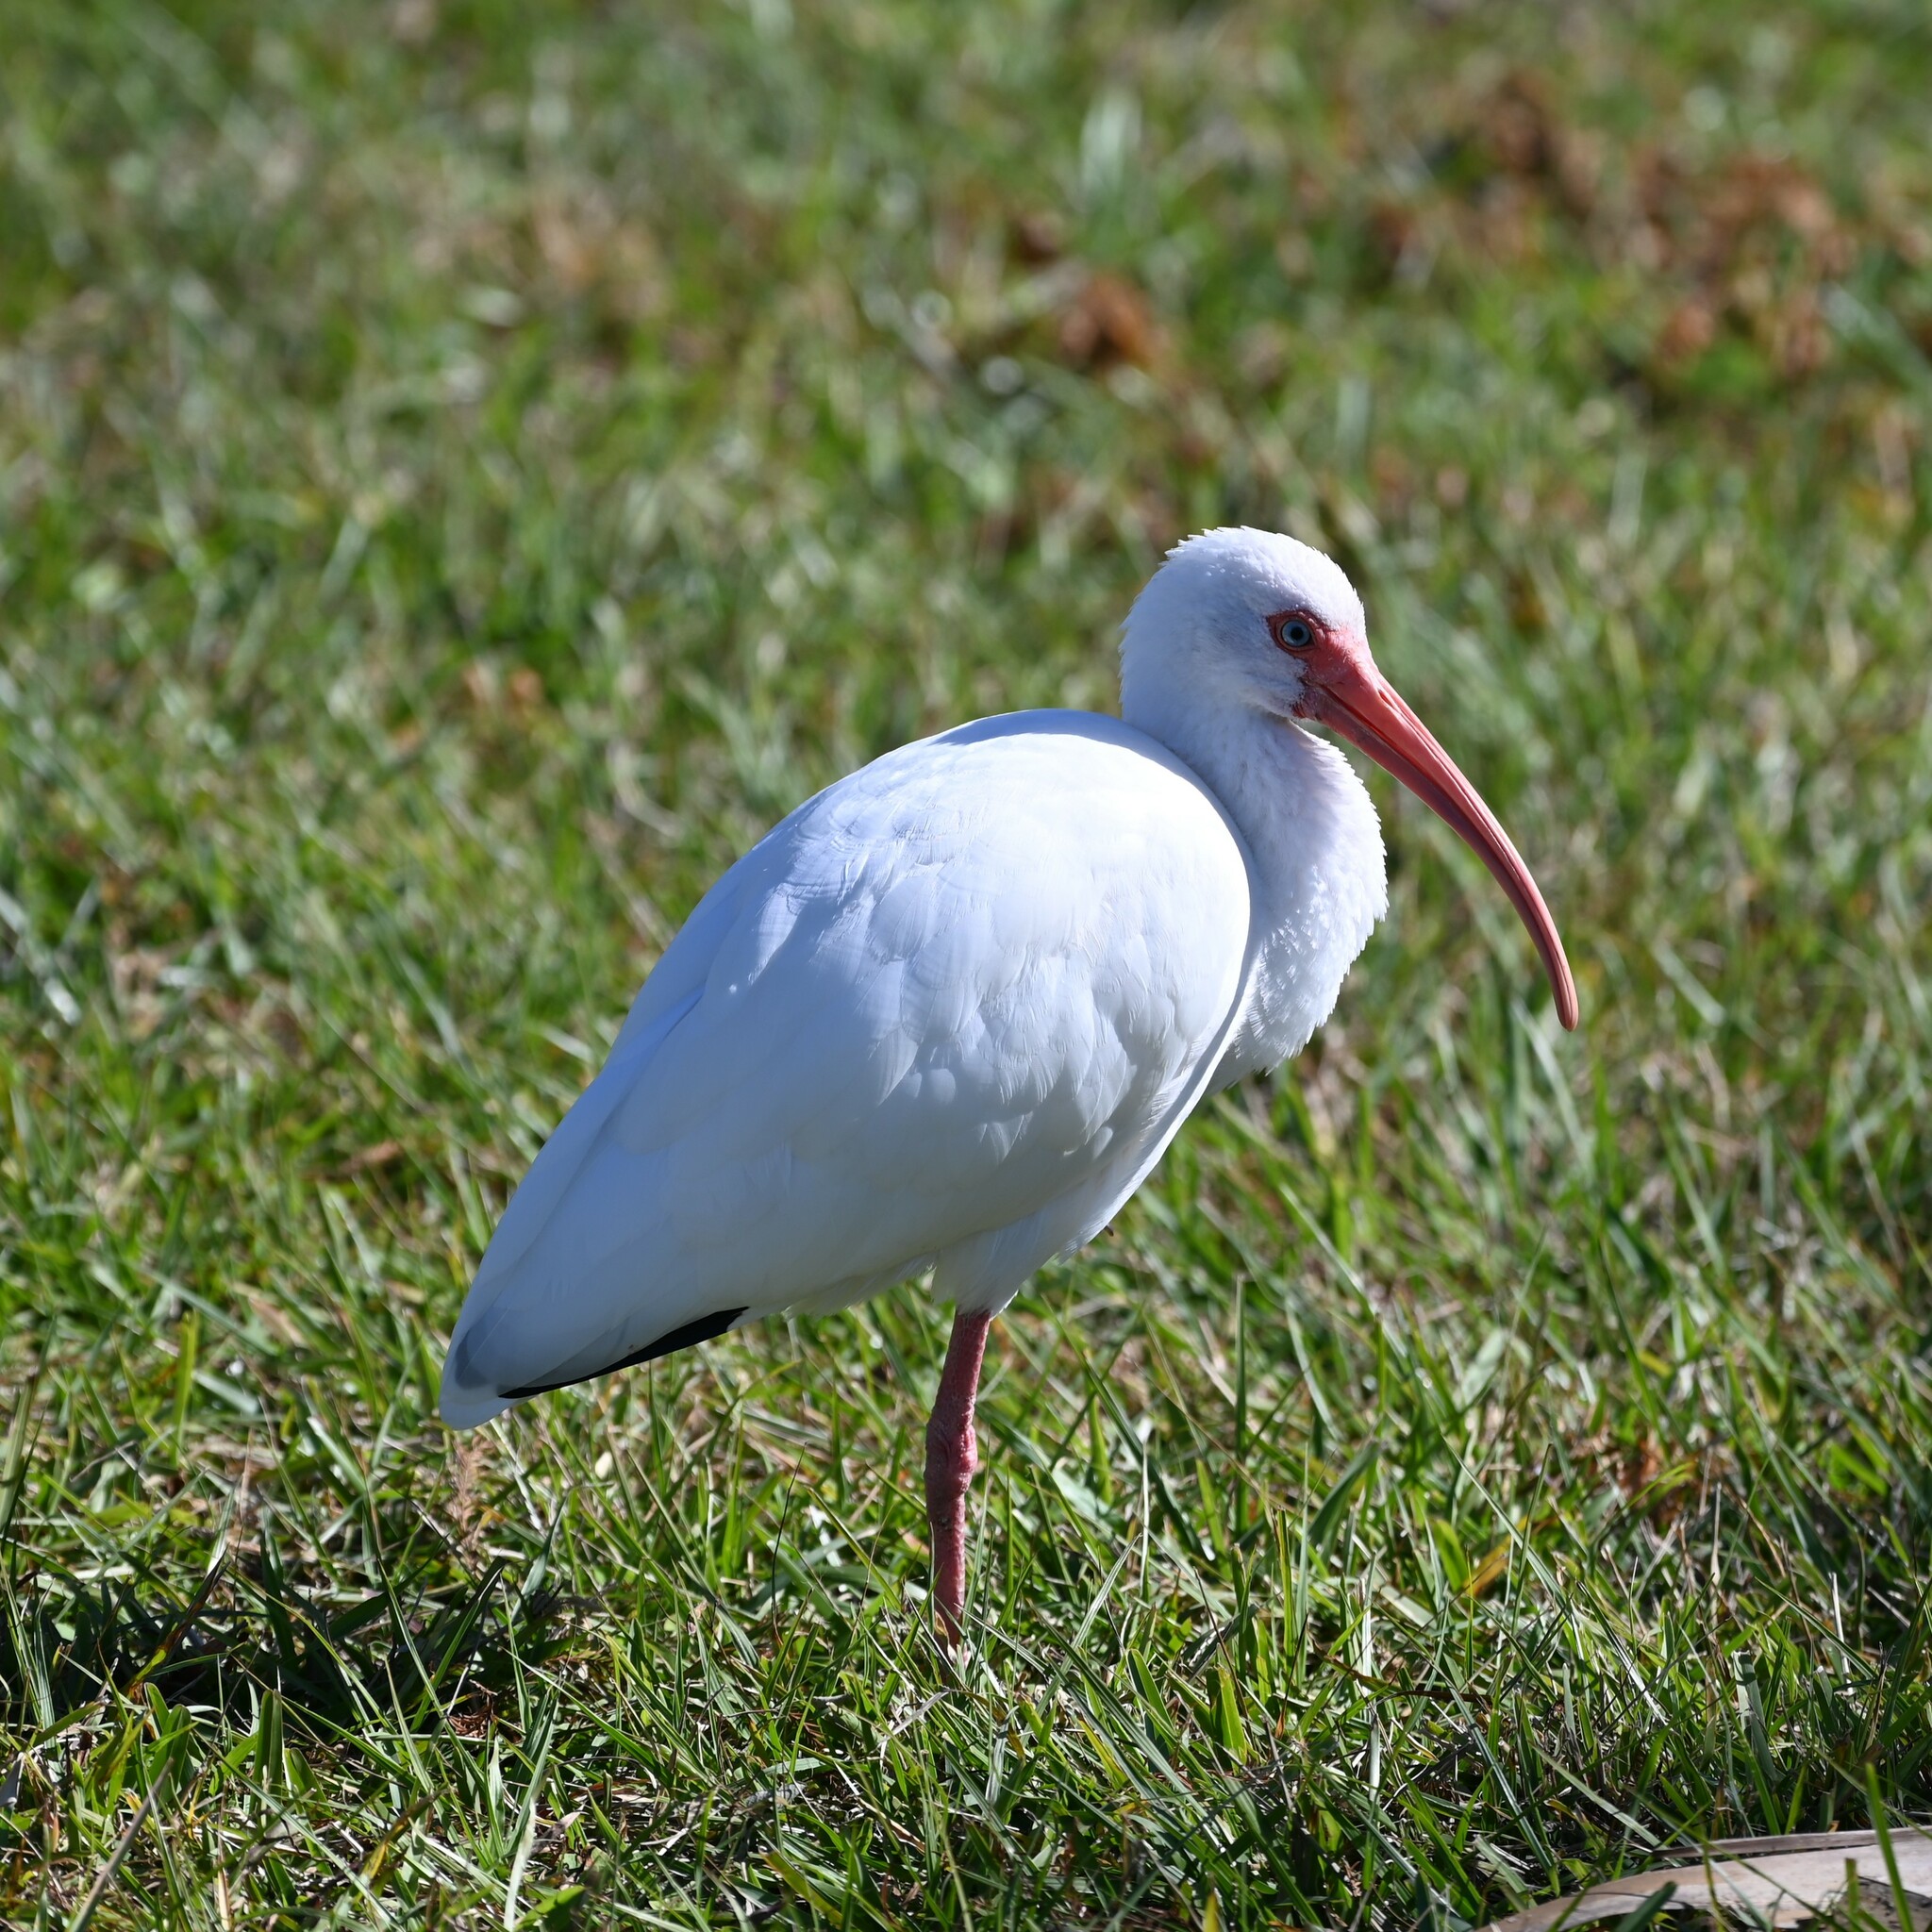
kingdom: Animalia
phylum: Chordata
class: Aves
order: Pelecaniformes
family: Threskiornithidae
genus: Eudocimus
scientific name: Eudocimus albus
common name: White ibis
